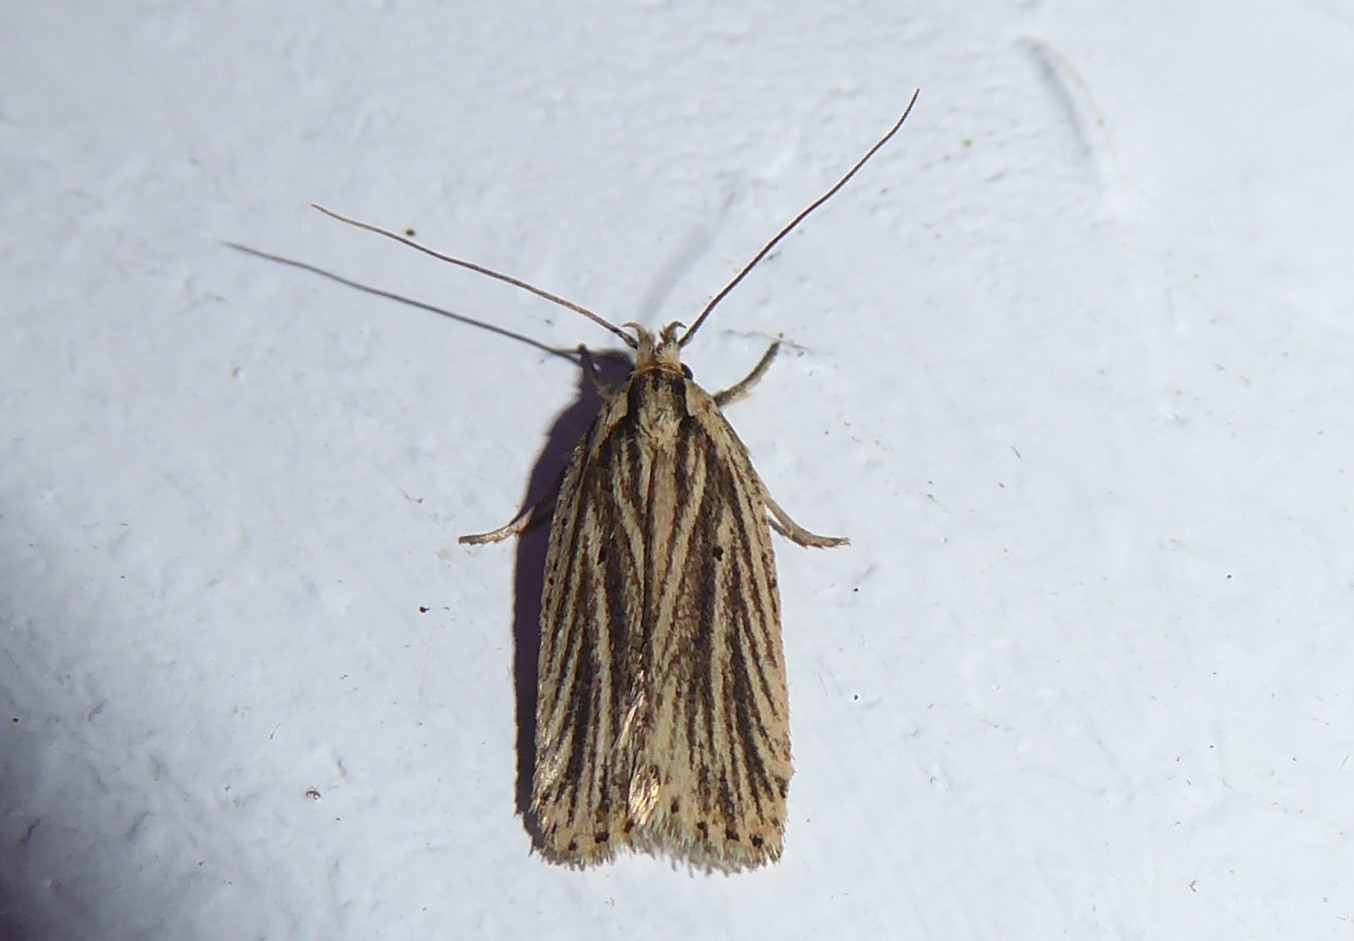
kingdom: Animalia
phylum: Arthropoda
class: Insecta
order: Lepidoptera
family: Depressariidae
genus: Agonopterix
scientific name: Agonopterix
